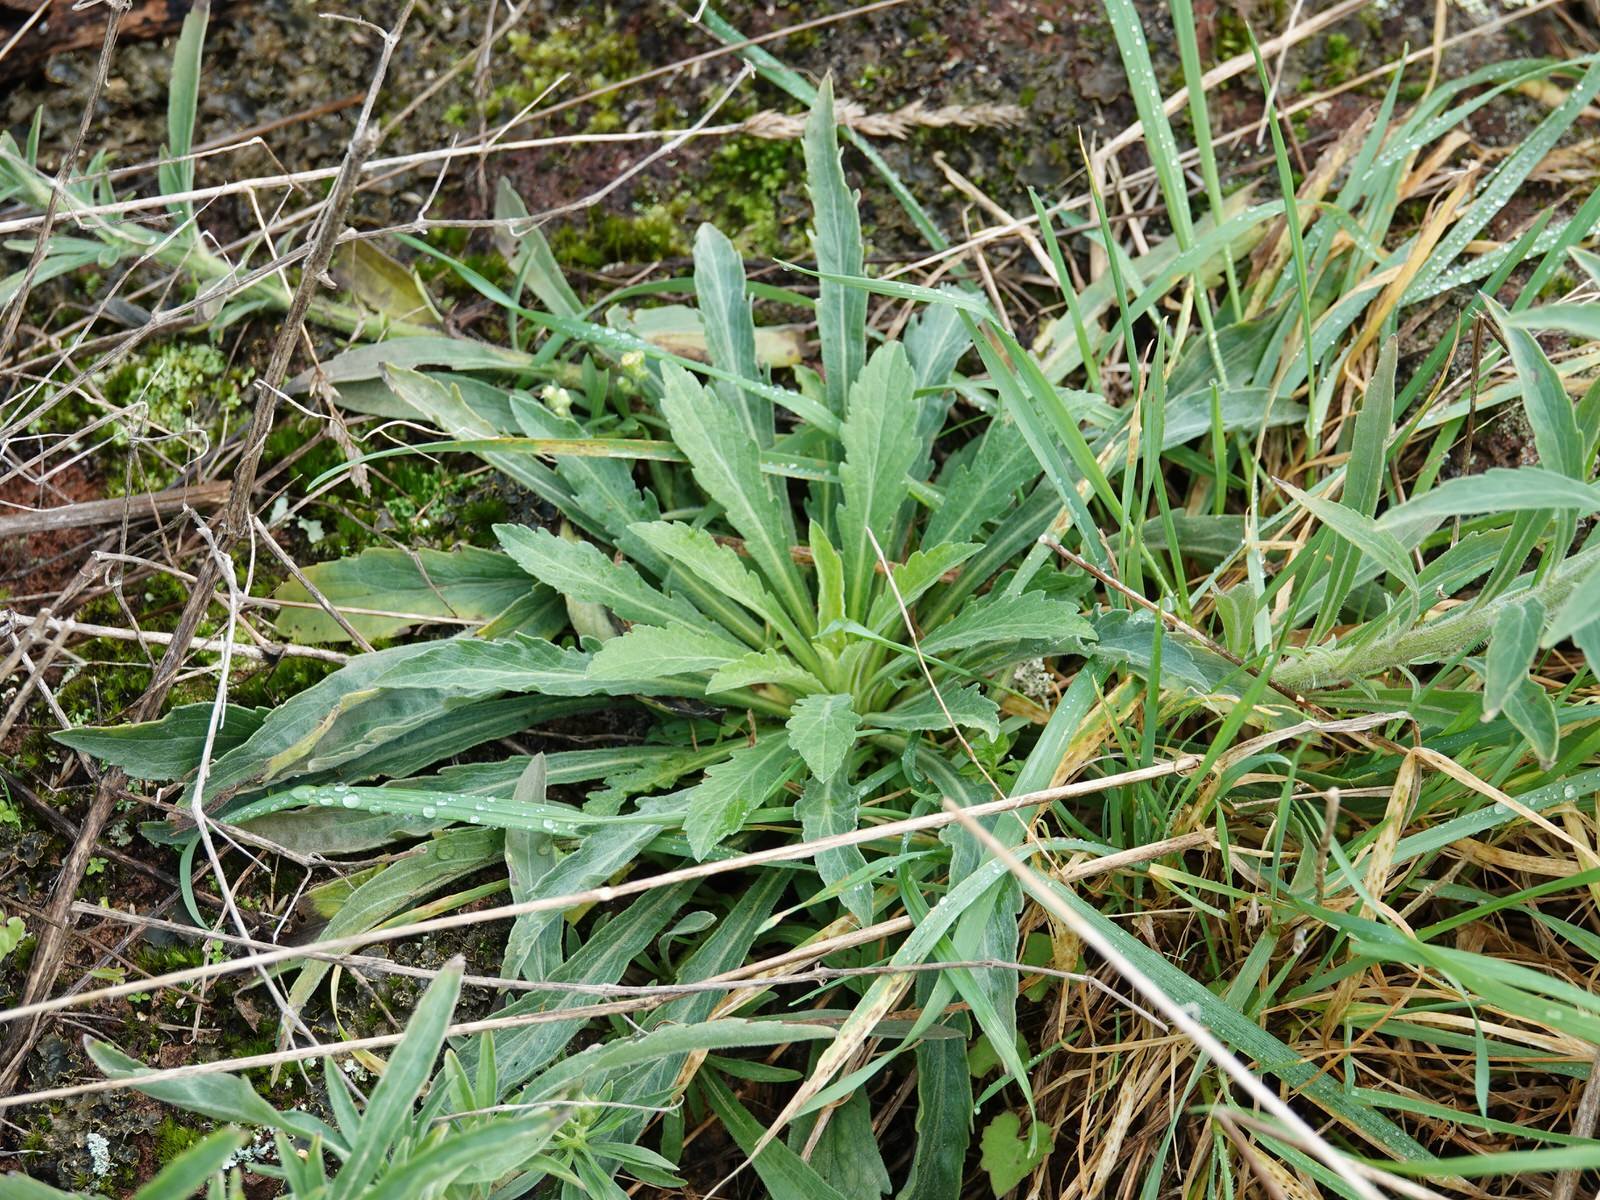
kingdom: Plantae
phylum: Tracheophyta
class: Magnoliopsida
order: Asterales
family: Asteraceae
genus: Erigeron
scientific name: Erigeron sumatrensis
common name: Daisy
